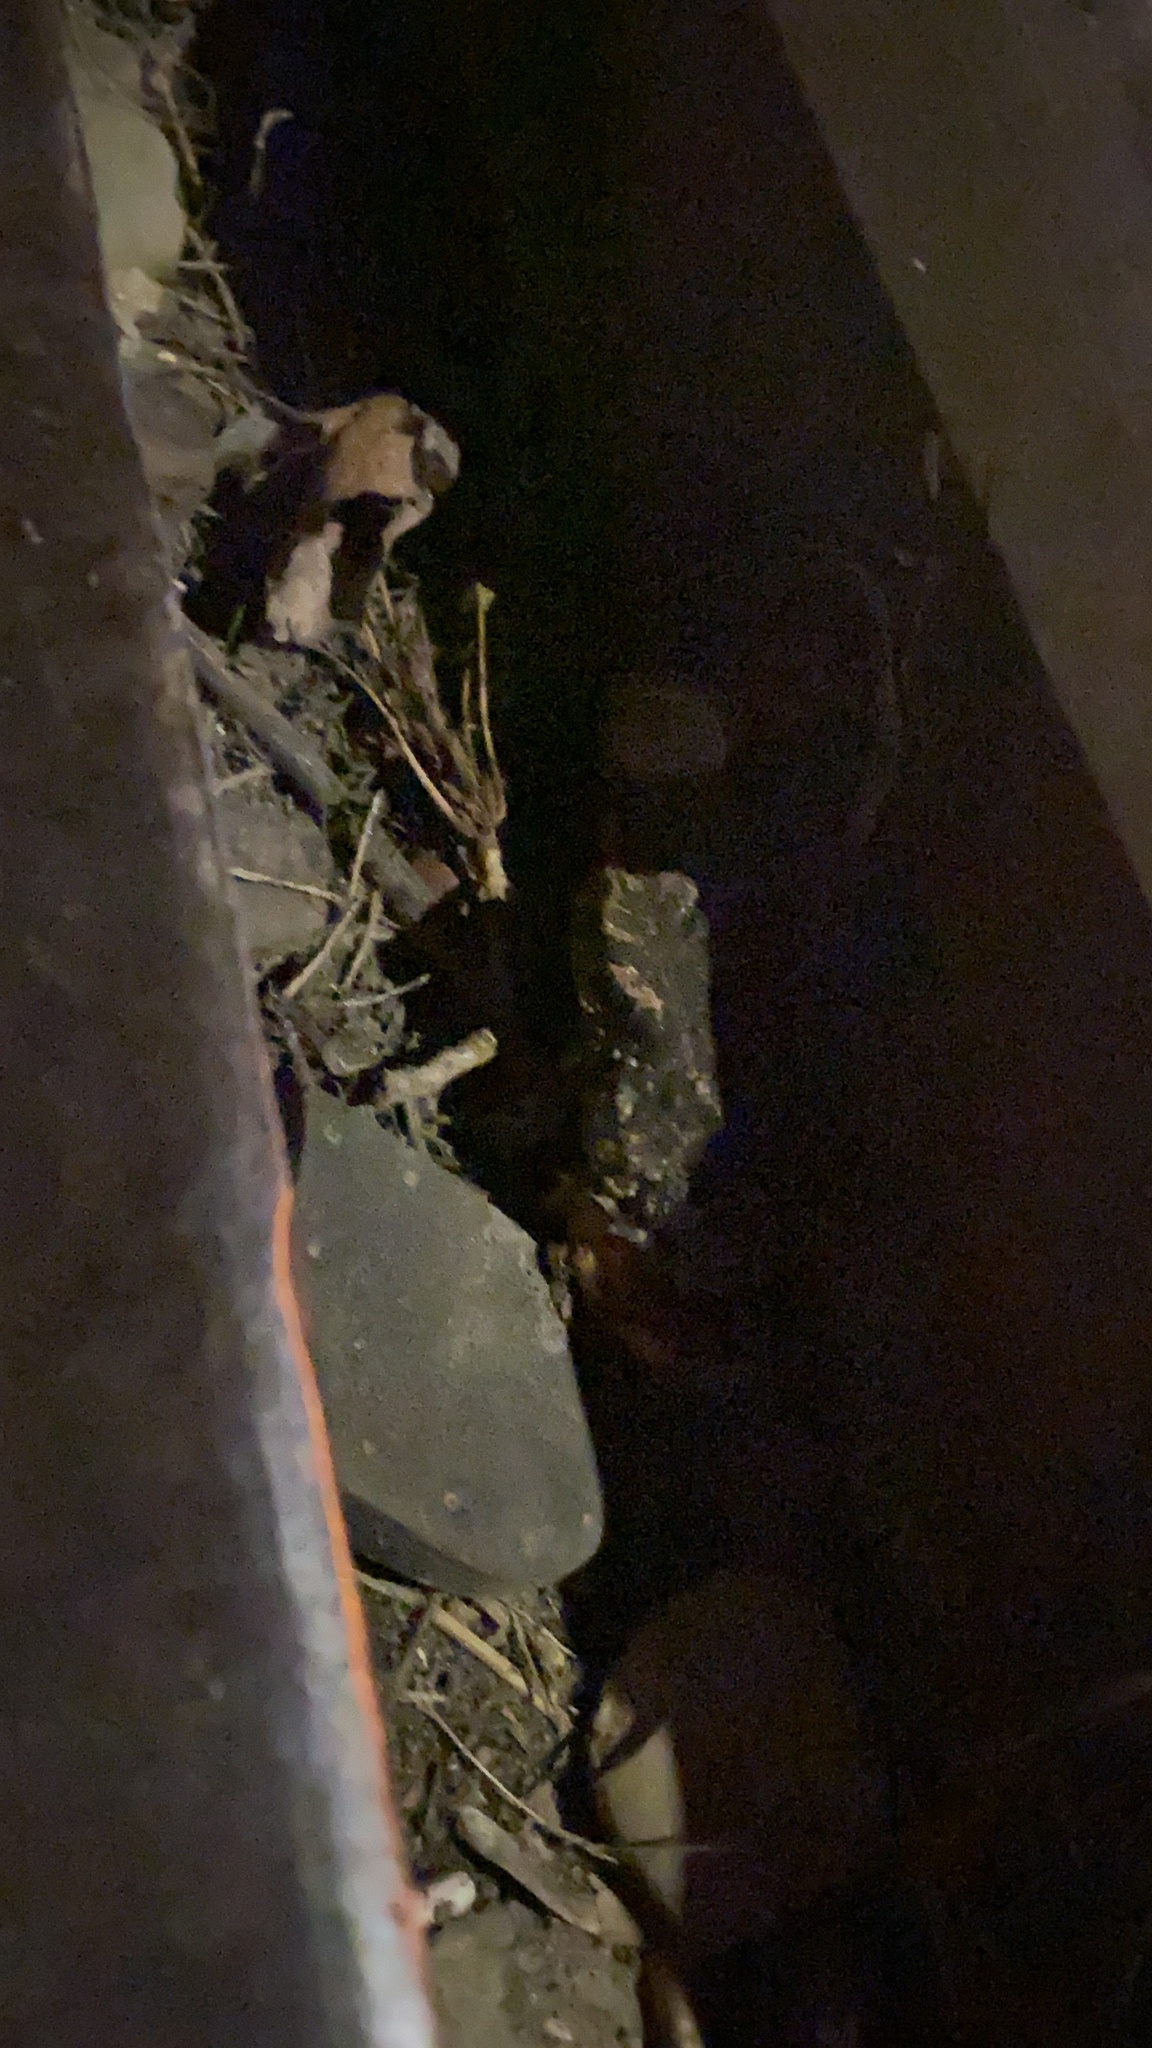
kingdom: Animalia
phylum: Chordata
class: Amphibia
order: Anura
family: Bufonidae
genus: Bufotes
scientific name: Bufotes viridis
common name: European green toad
